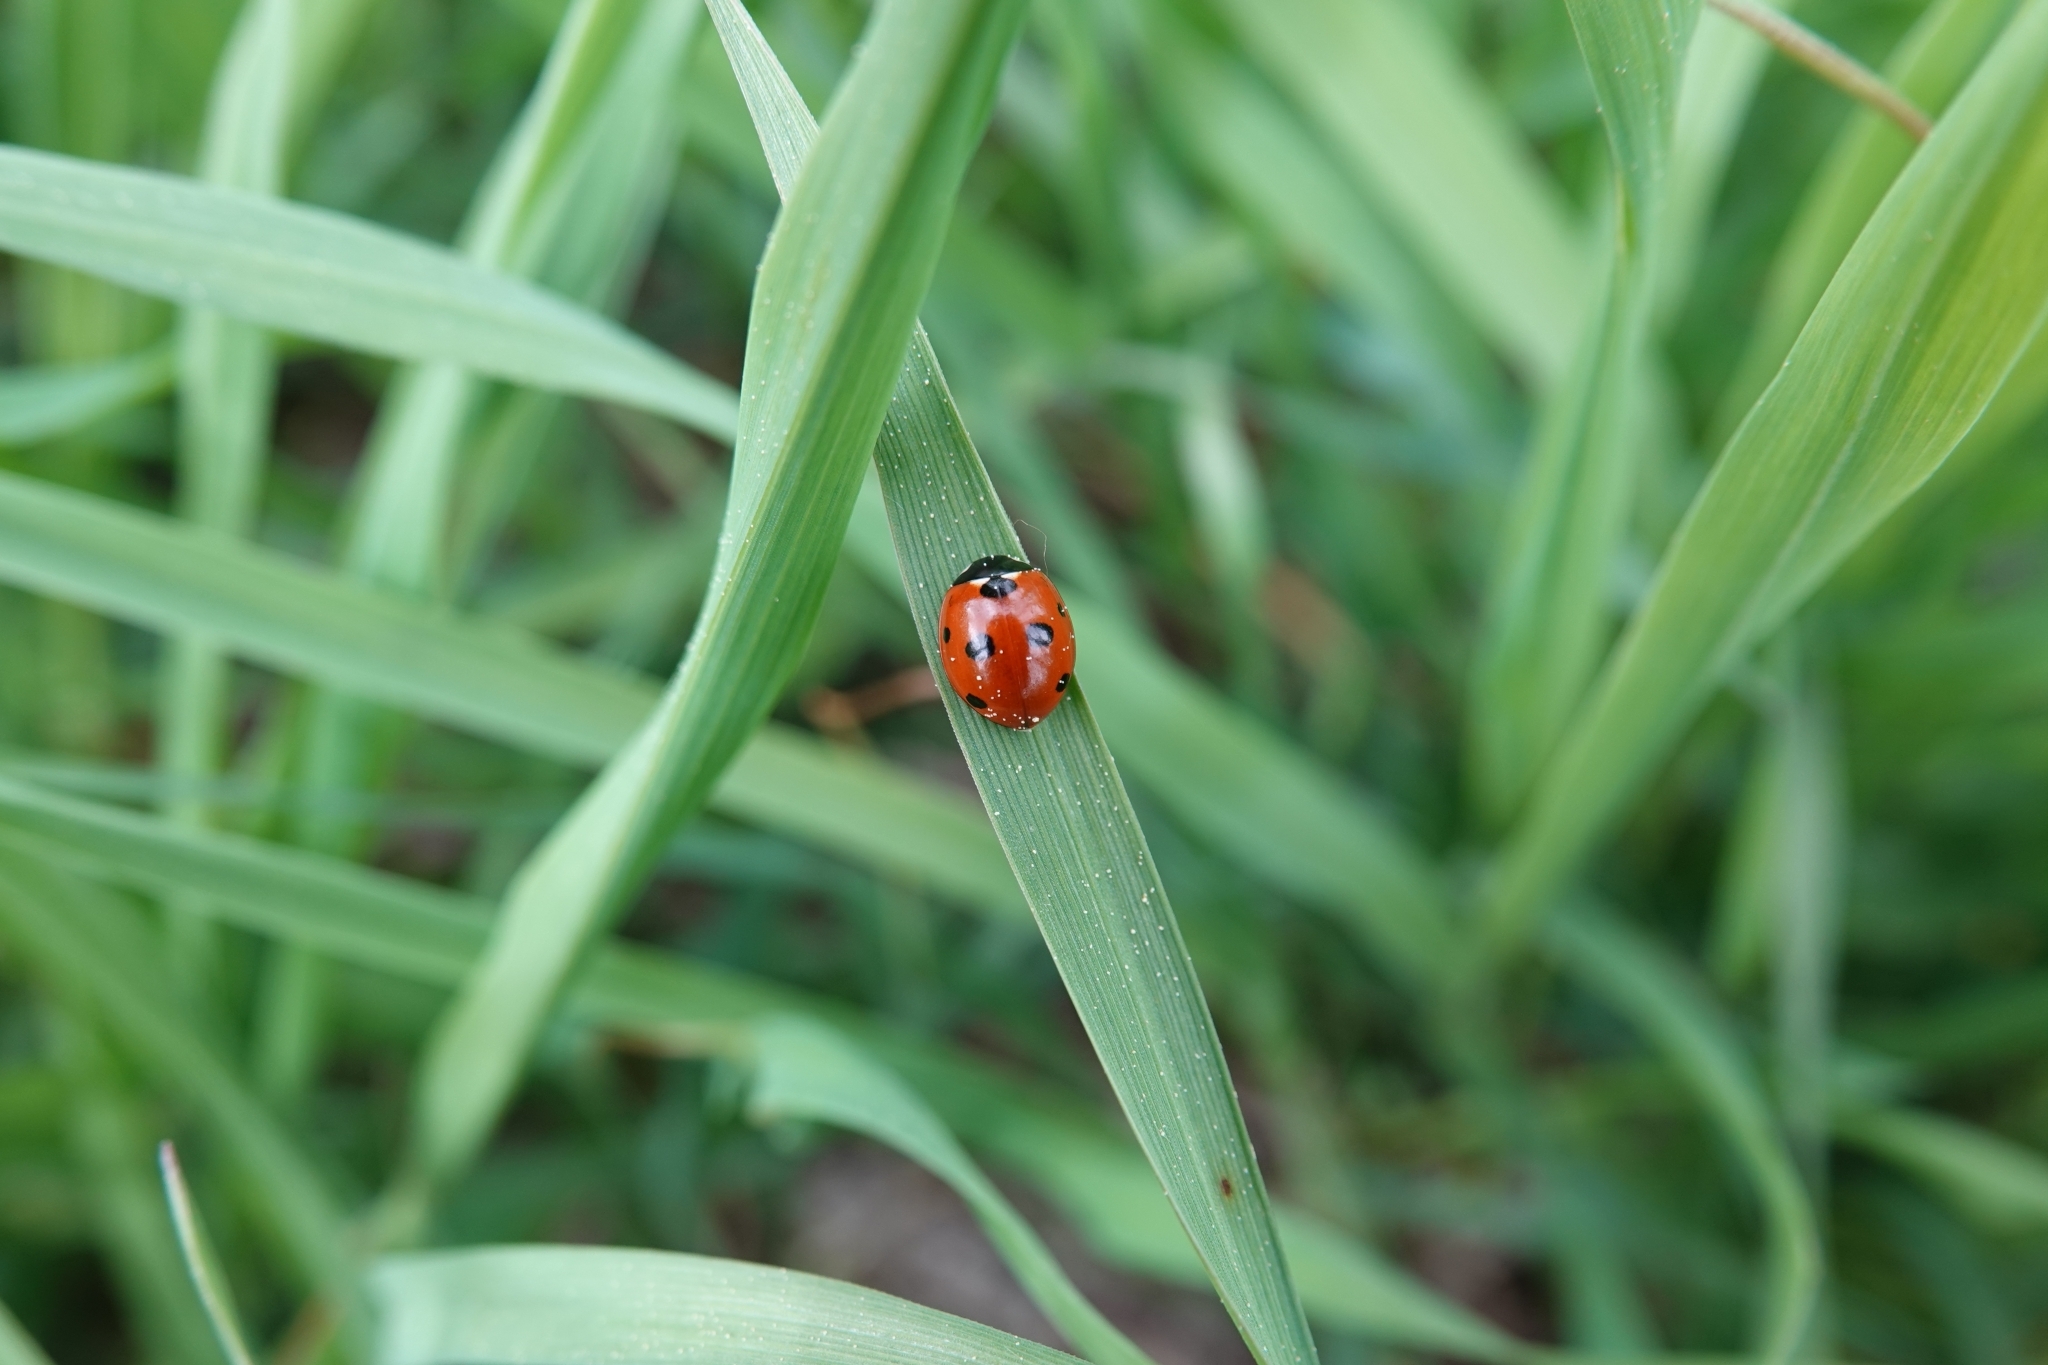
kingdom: Animalia
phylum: Arthropoda
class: Insecta
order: Coleoptera
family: Coccinellidae
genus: Coccinella
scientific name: Coccinella septempunctata
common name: Sevenspotted lady beetle
